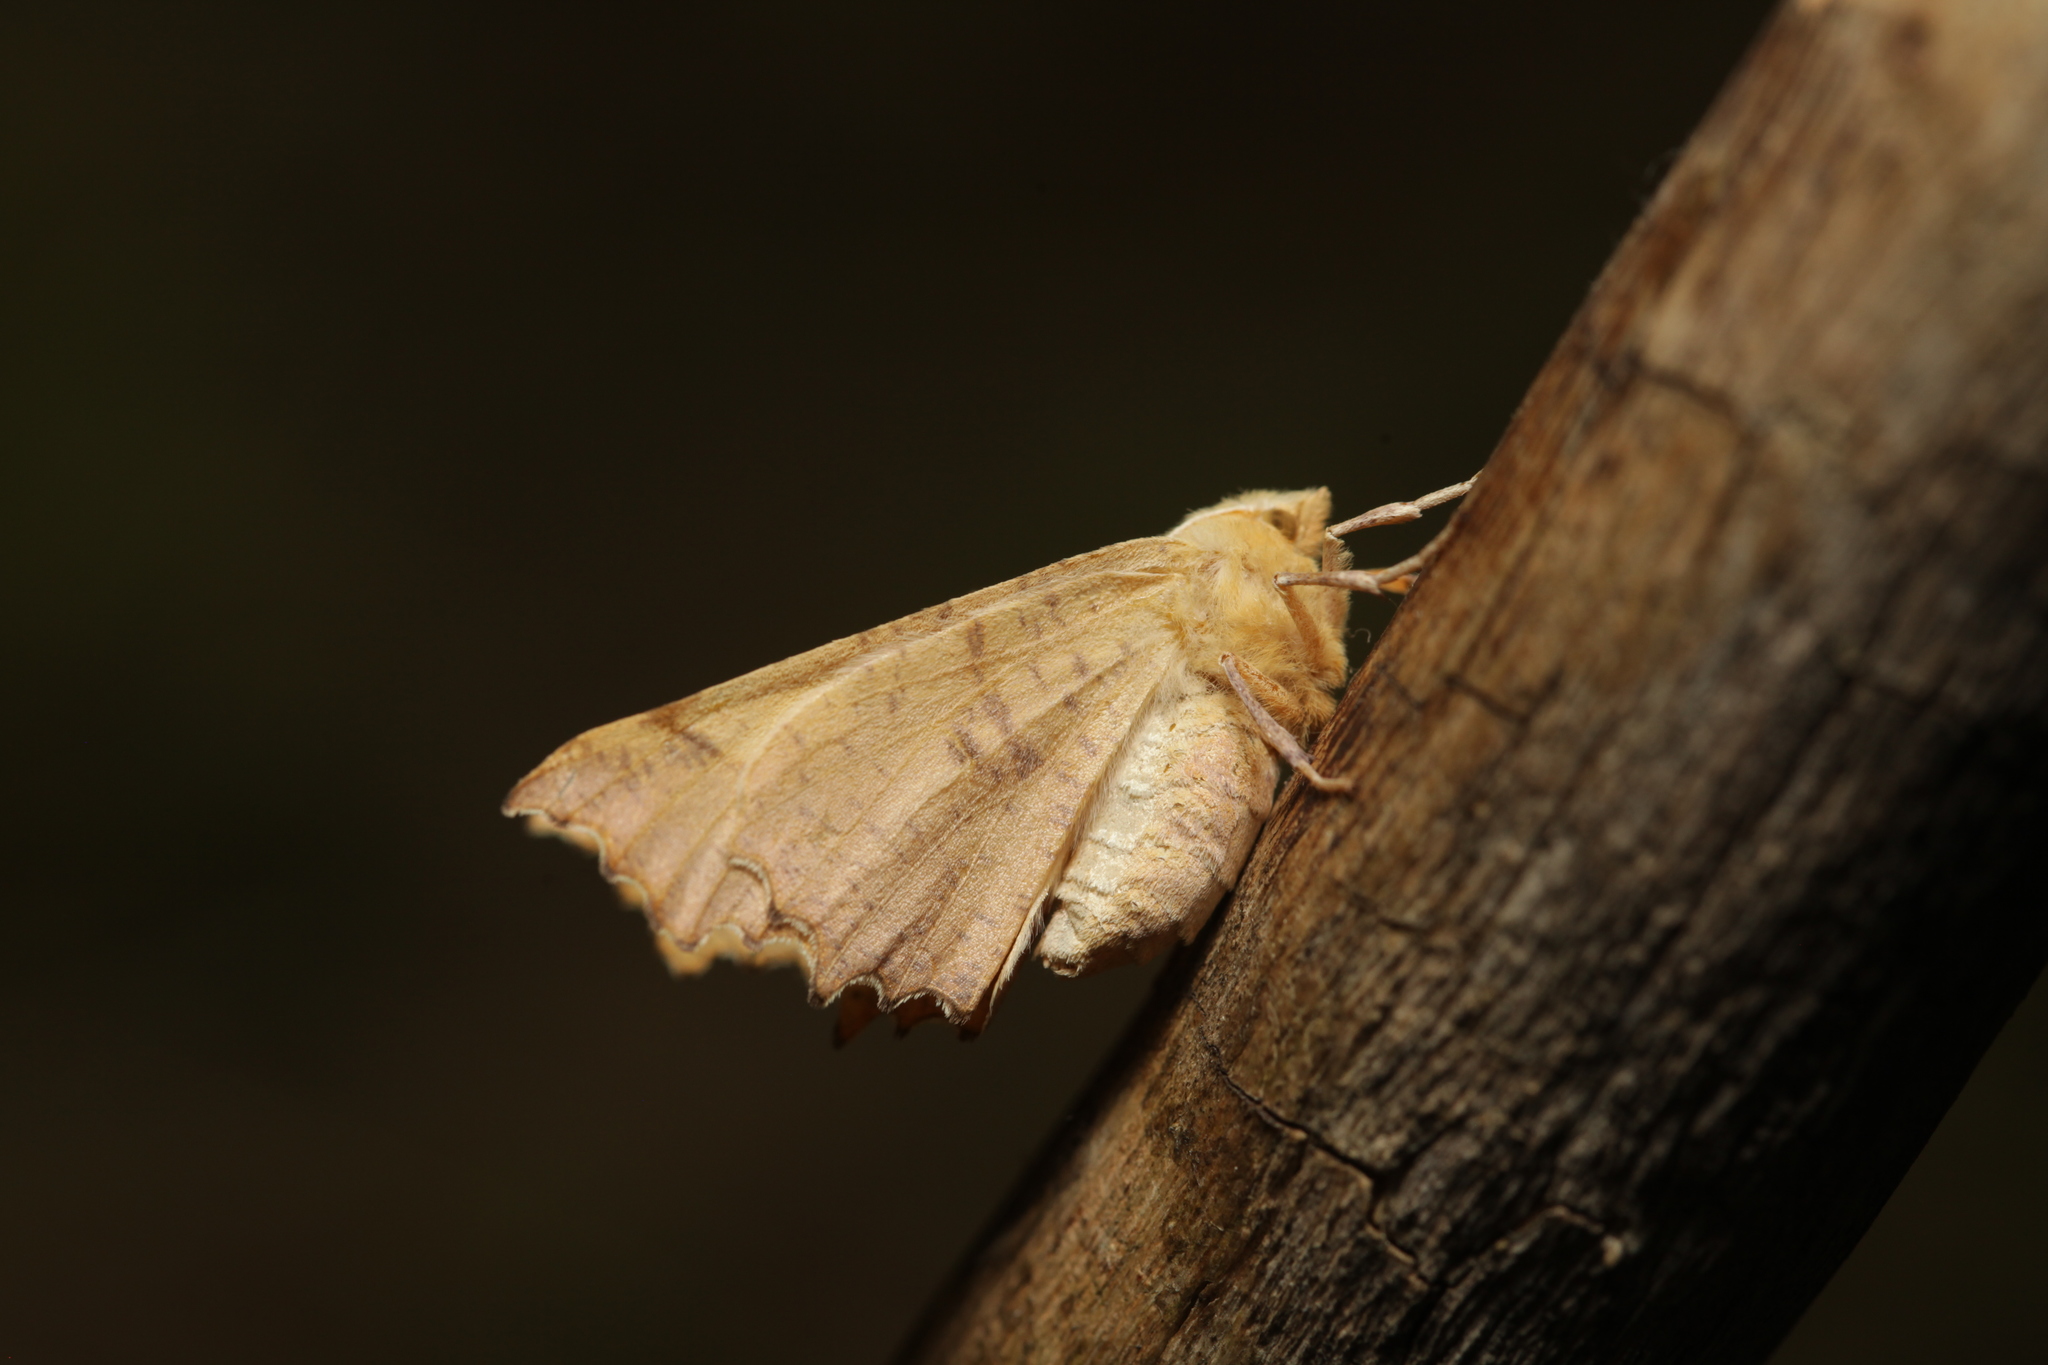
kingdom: Animalia
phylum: Arthropoda
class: Insecta
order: Lepidoptera
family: Geometridae
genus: Ennomos
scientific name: Ennomos autumnaria
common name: Large thorn
